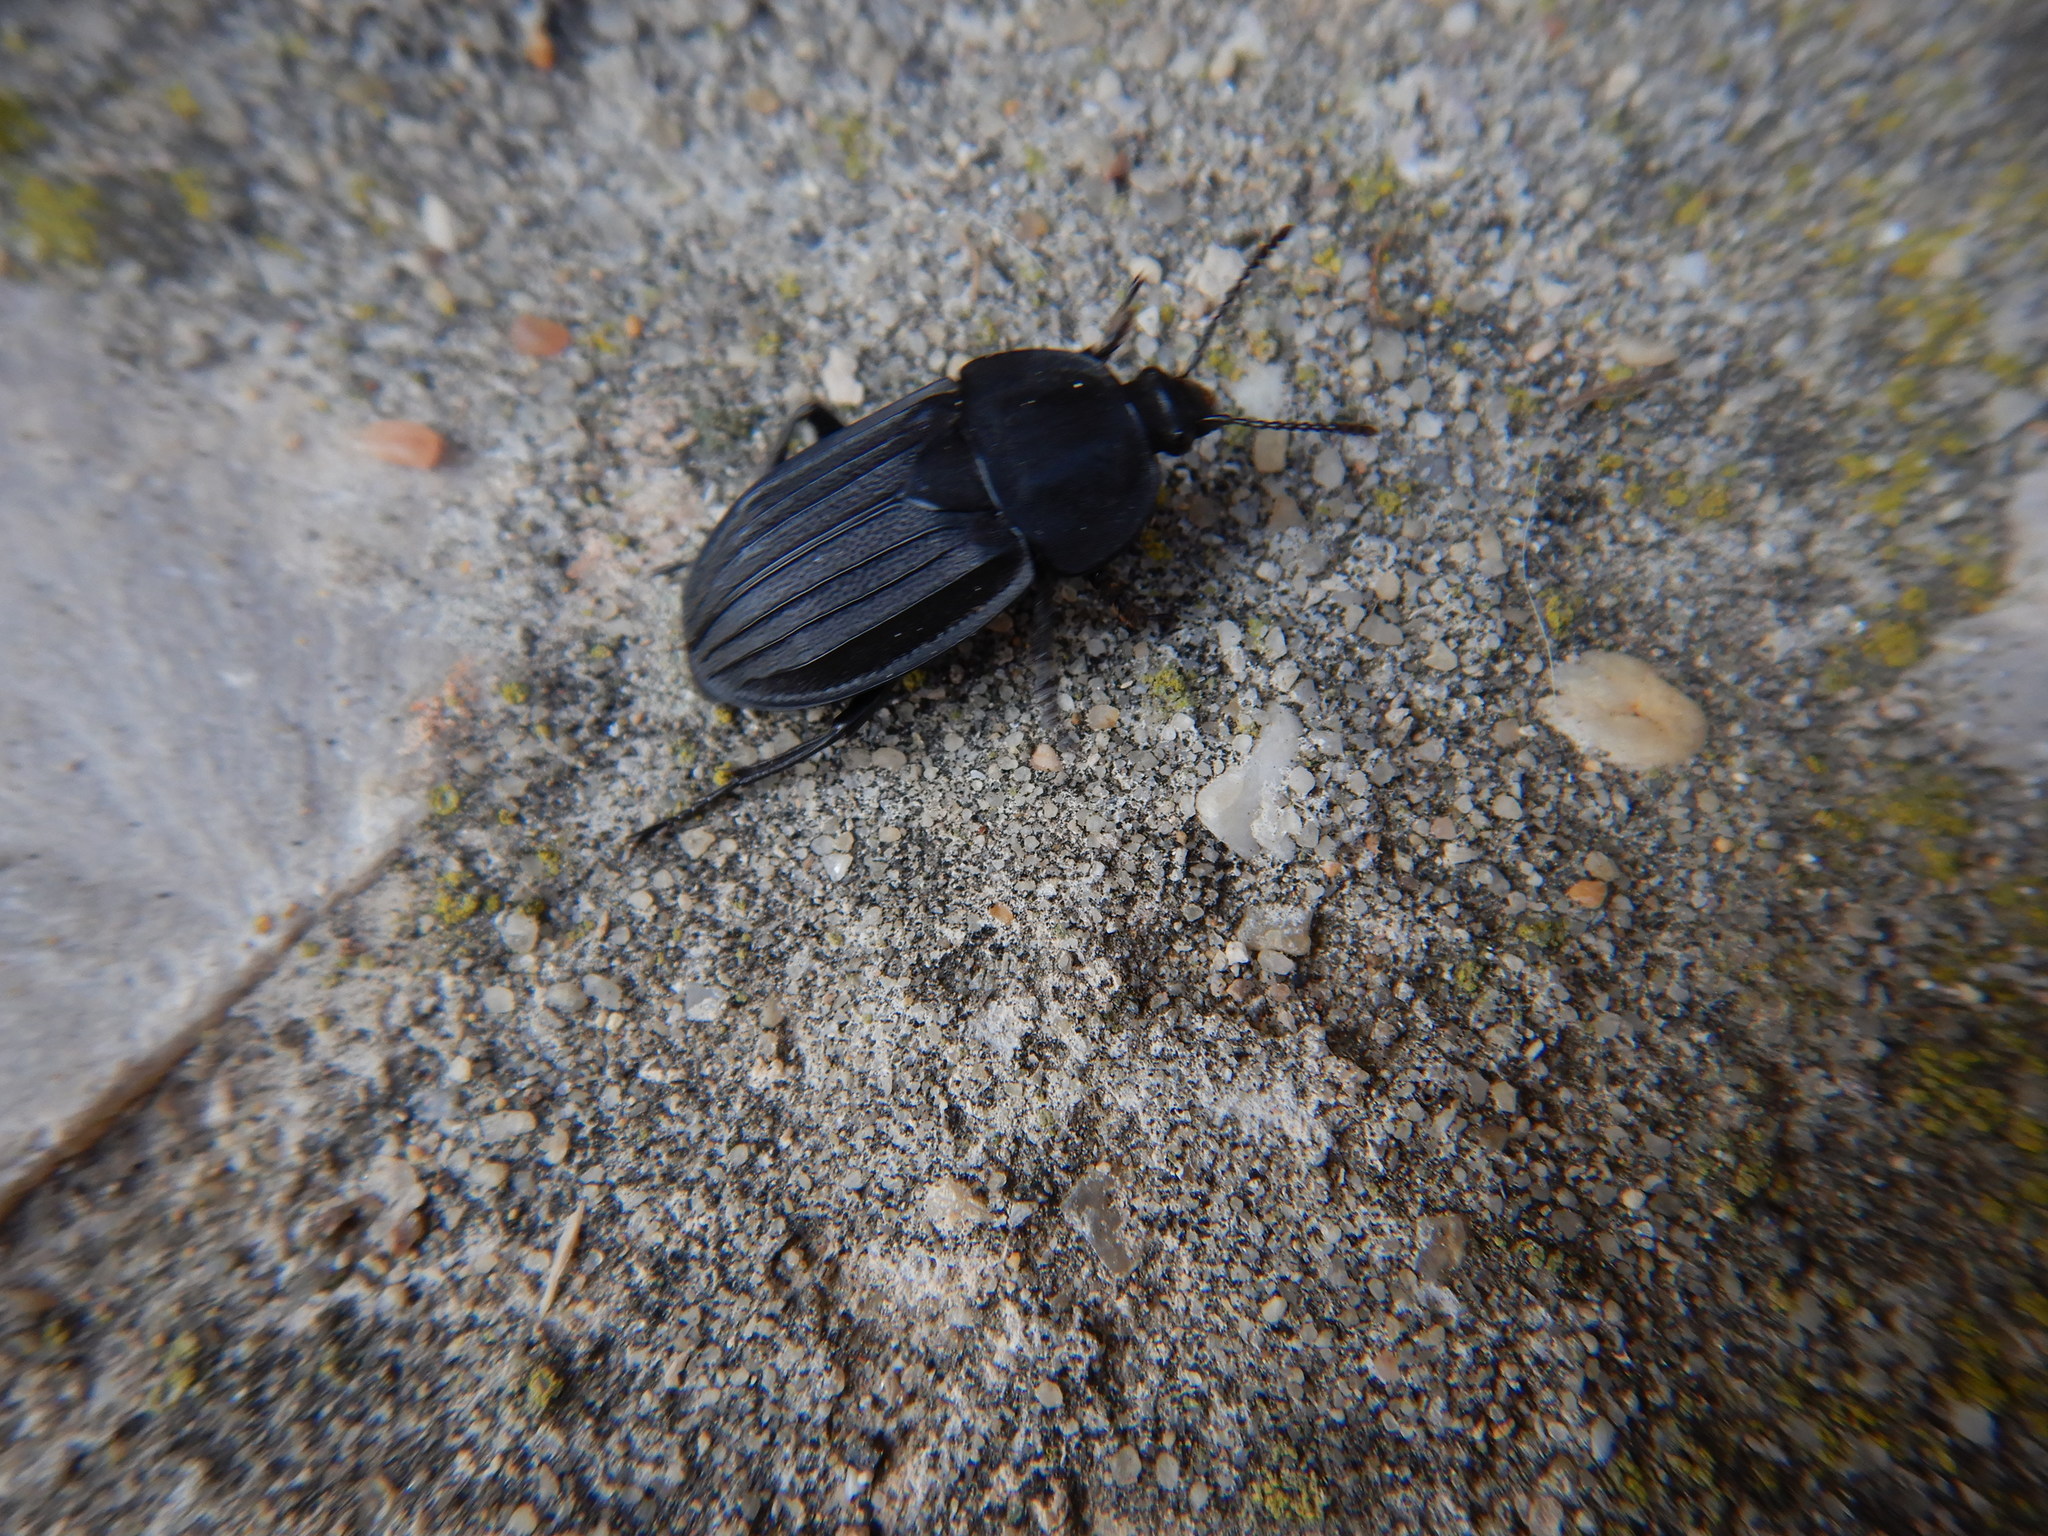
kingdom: Animalia
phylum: Arthropoda
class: Insecta
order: Coleoptera
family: Staphylinidae
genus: Silpha
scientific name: Silpha
